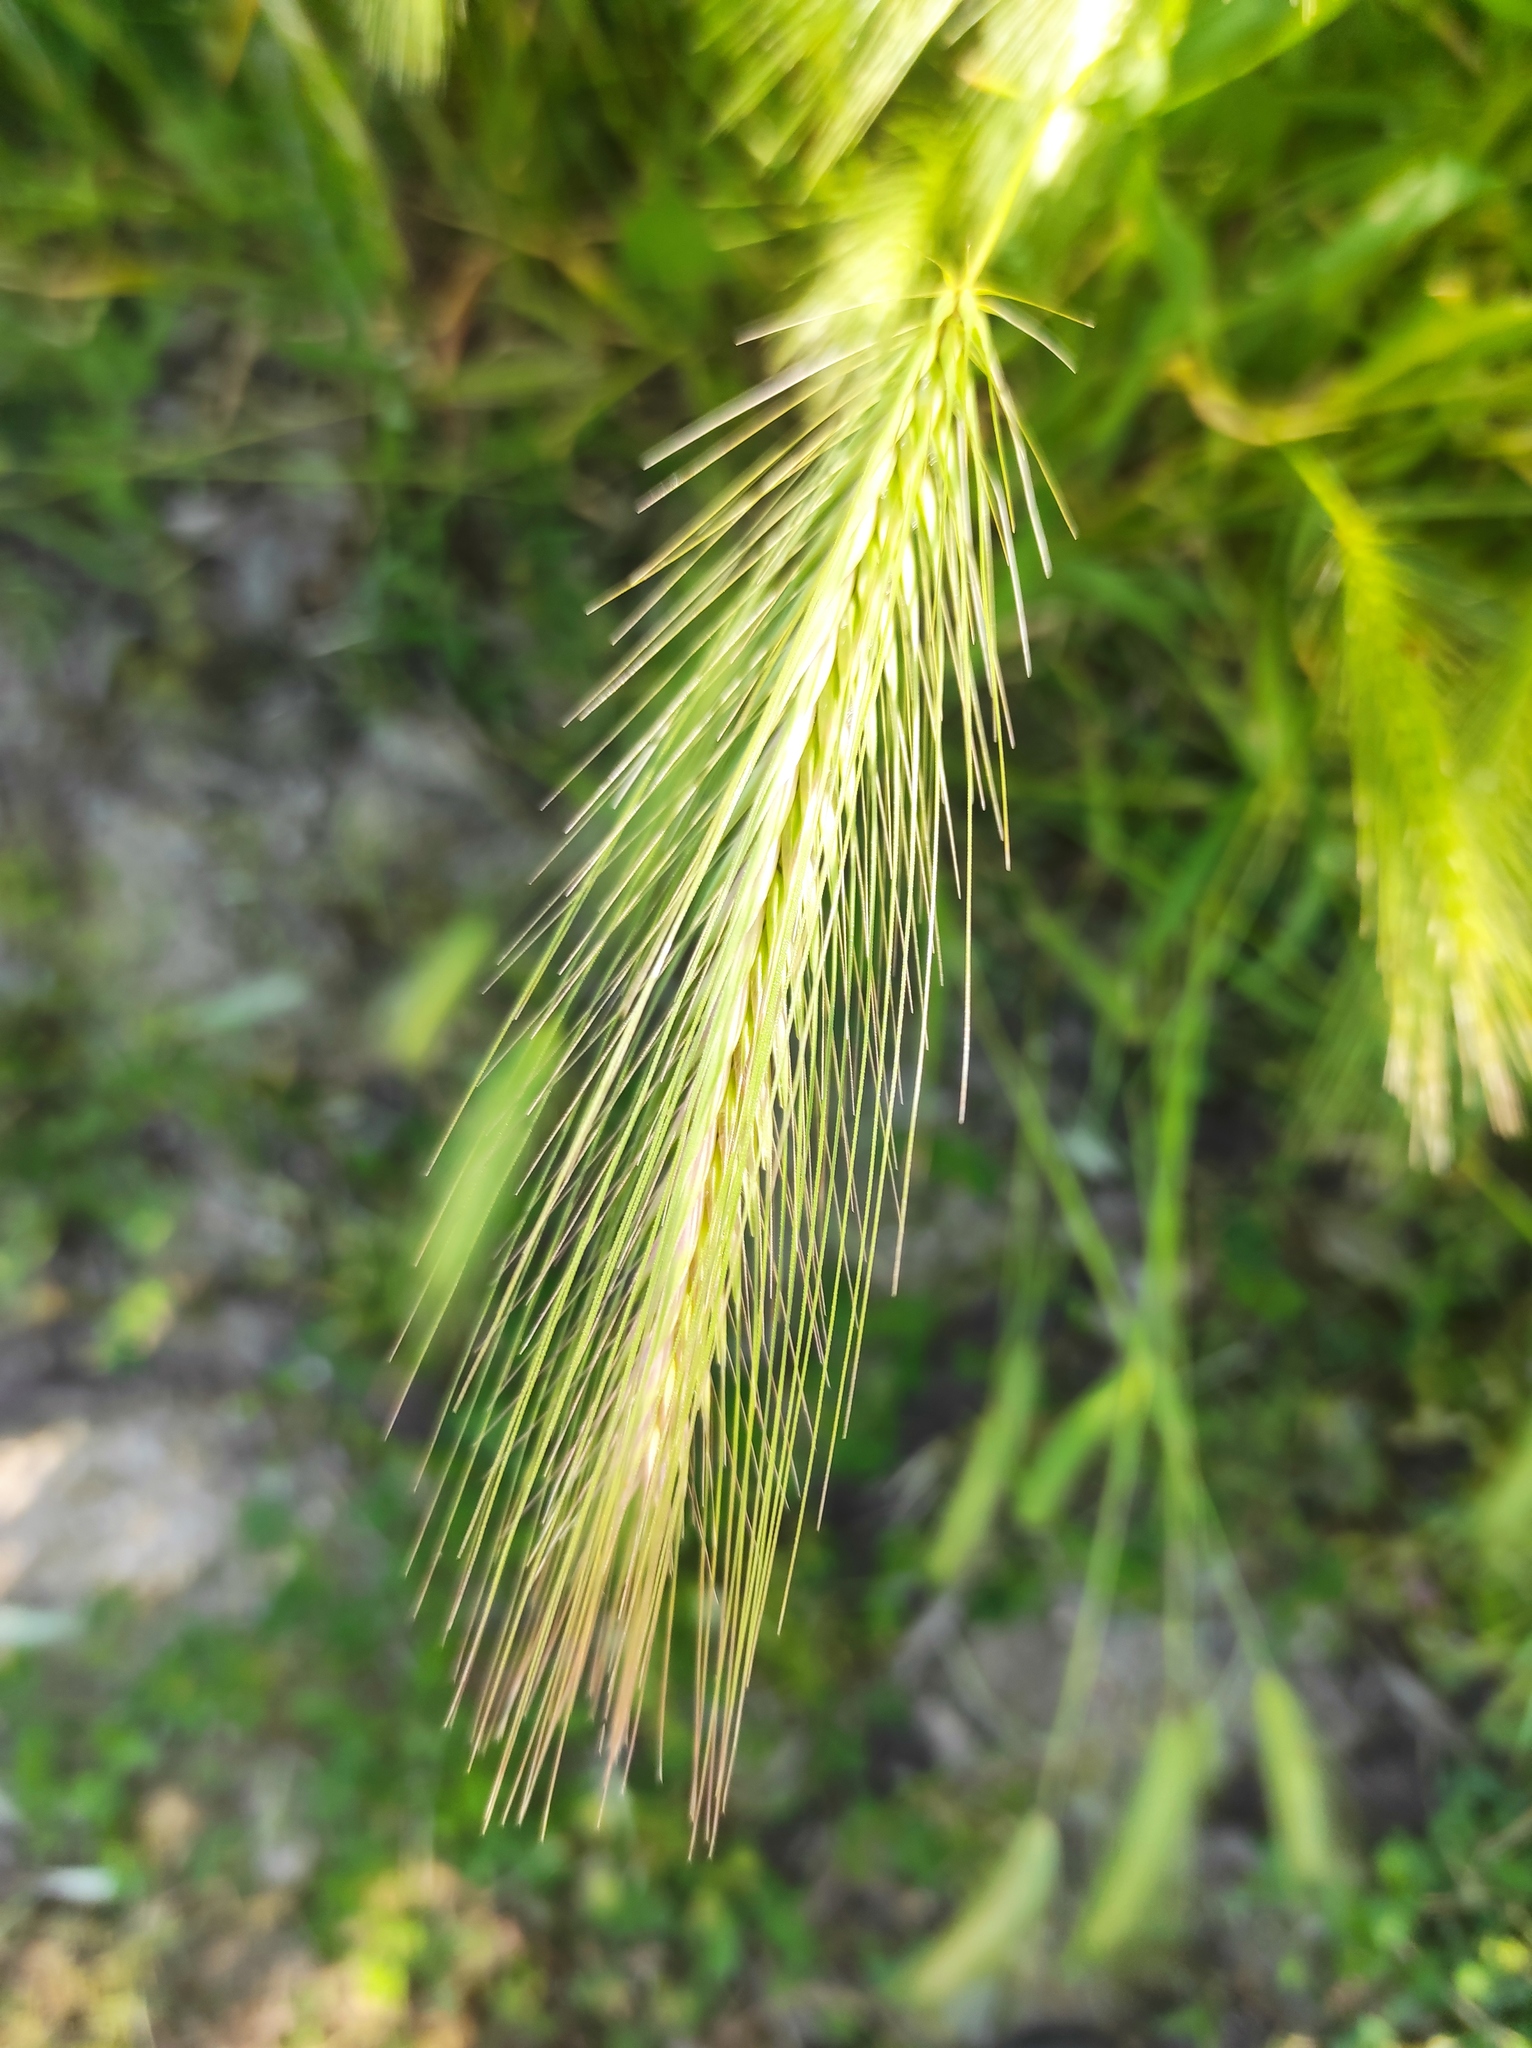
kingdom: Plantae
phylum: Tracheophyta
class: Liliopsida
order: Poales
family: Poaceae
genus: Hordeum
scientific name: Hordeum murinum
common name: Wall barley
